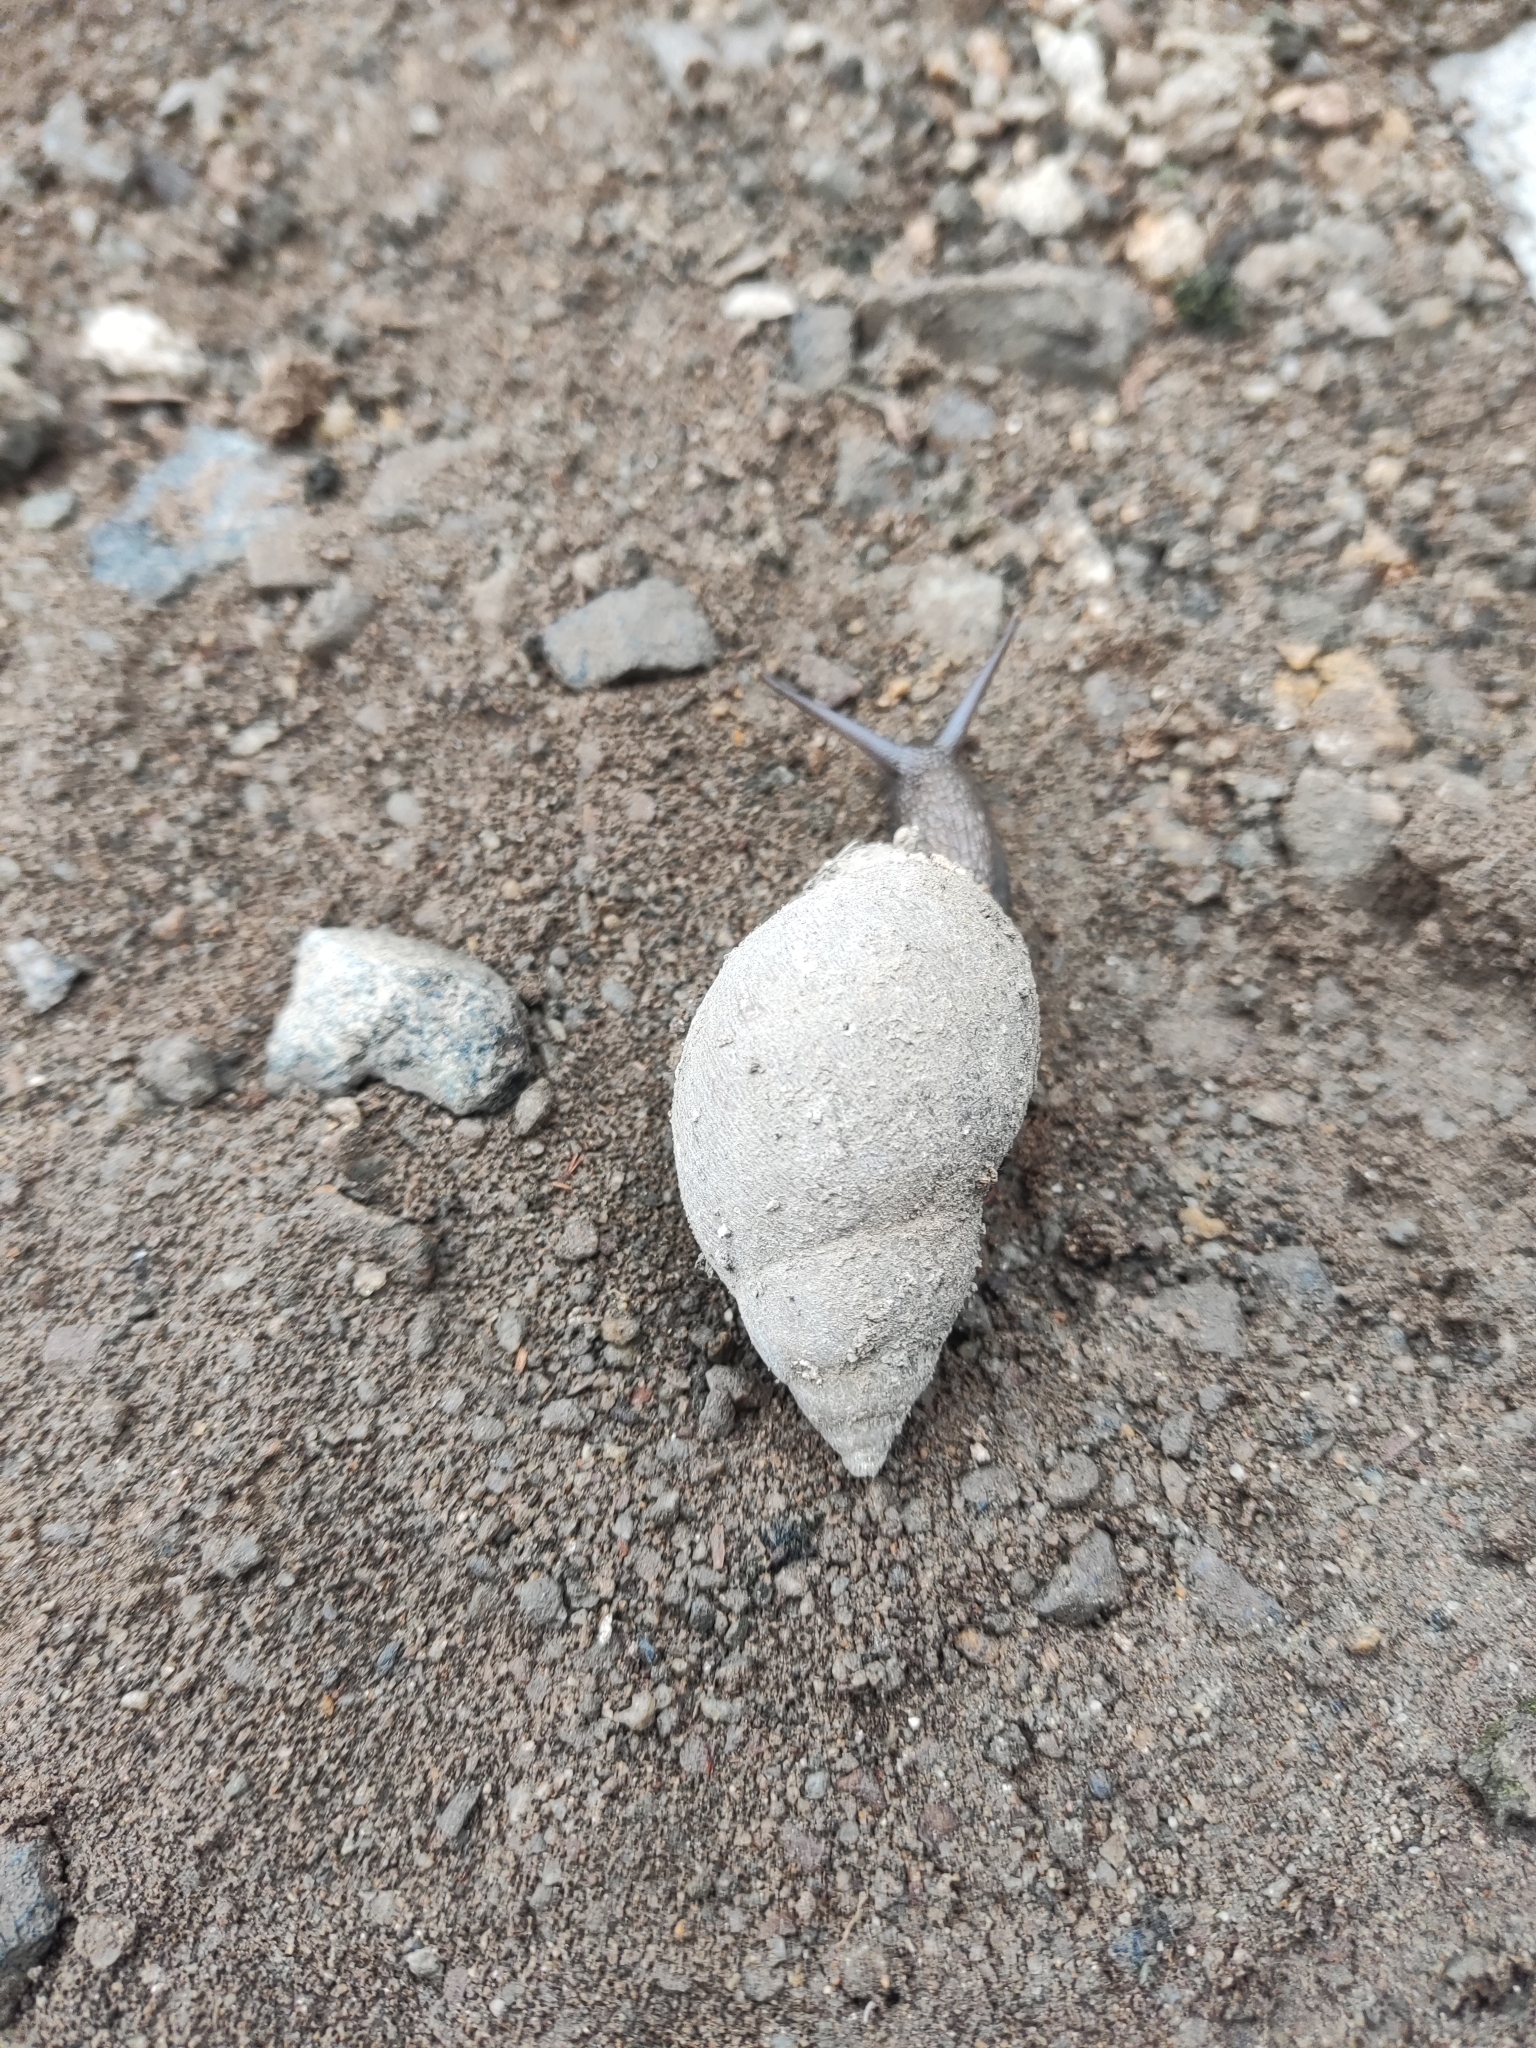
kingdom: Animalia
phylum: Mollusca
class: Gastropoda
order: Stylommatophora
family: Bulimulidae
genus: Scutalus
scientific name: Scutalus
